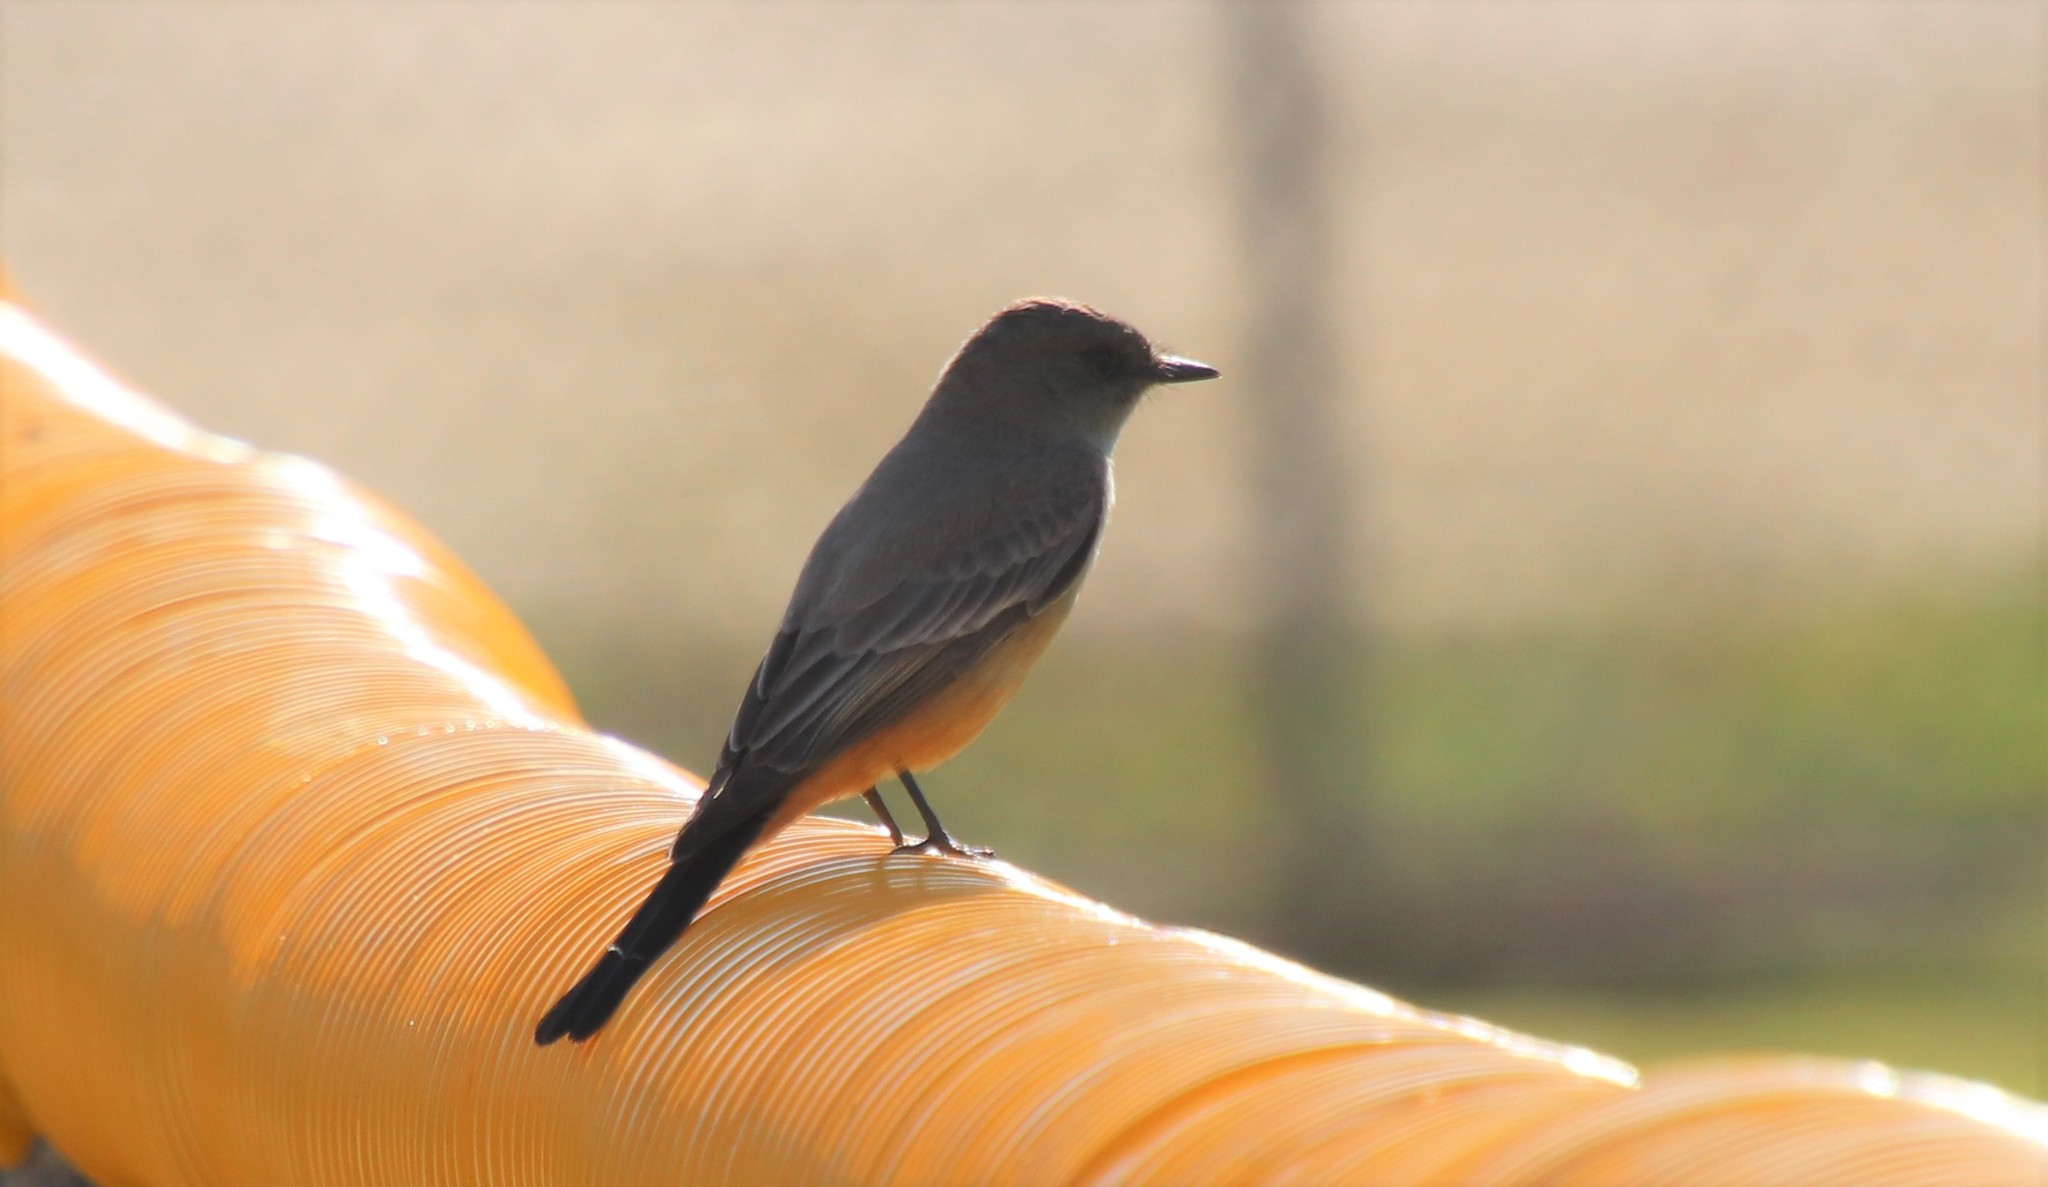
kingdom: Animalia
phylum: Chordata
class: Aves
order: Passeriformes
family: Tyrannidae
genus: Sayornis
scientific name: Sayornis saya
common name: Say's phoebe
